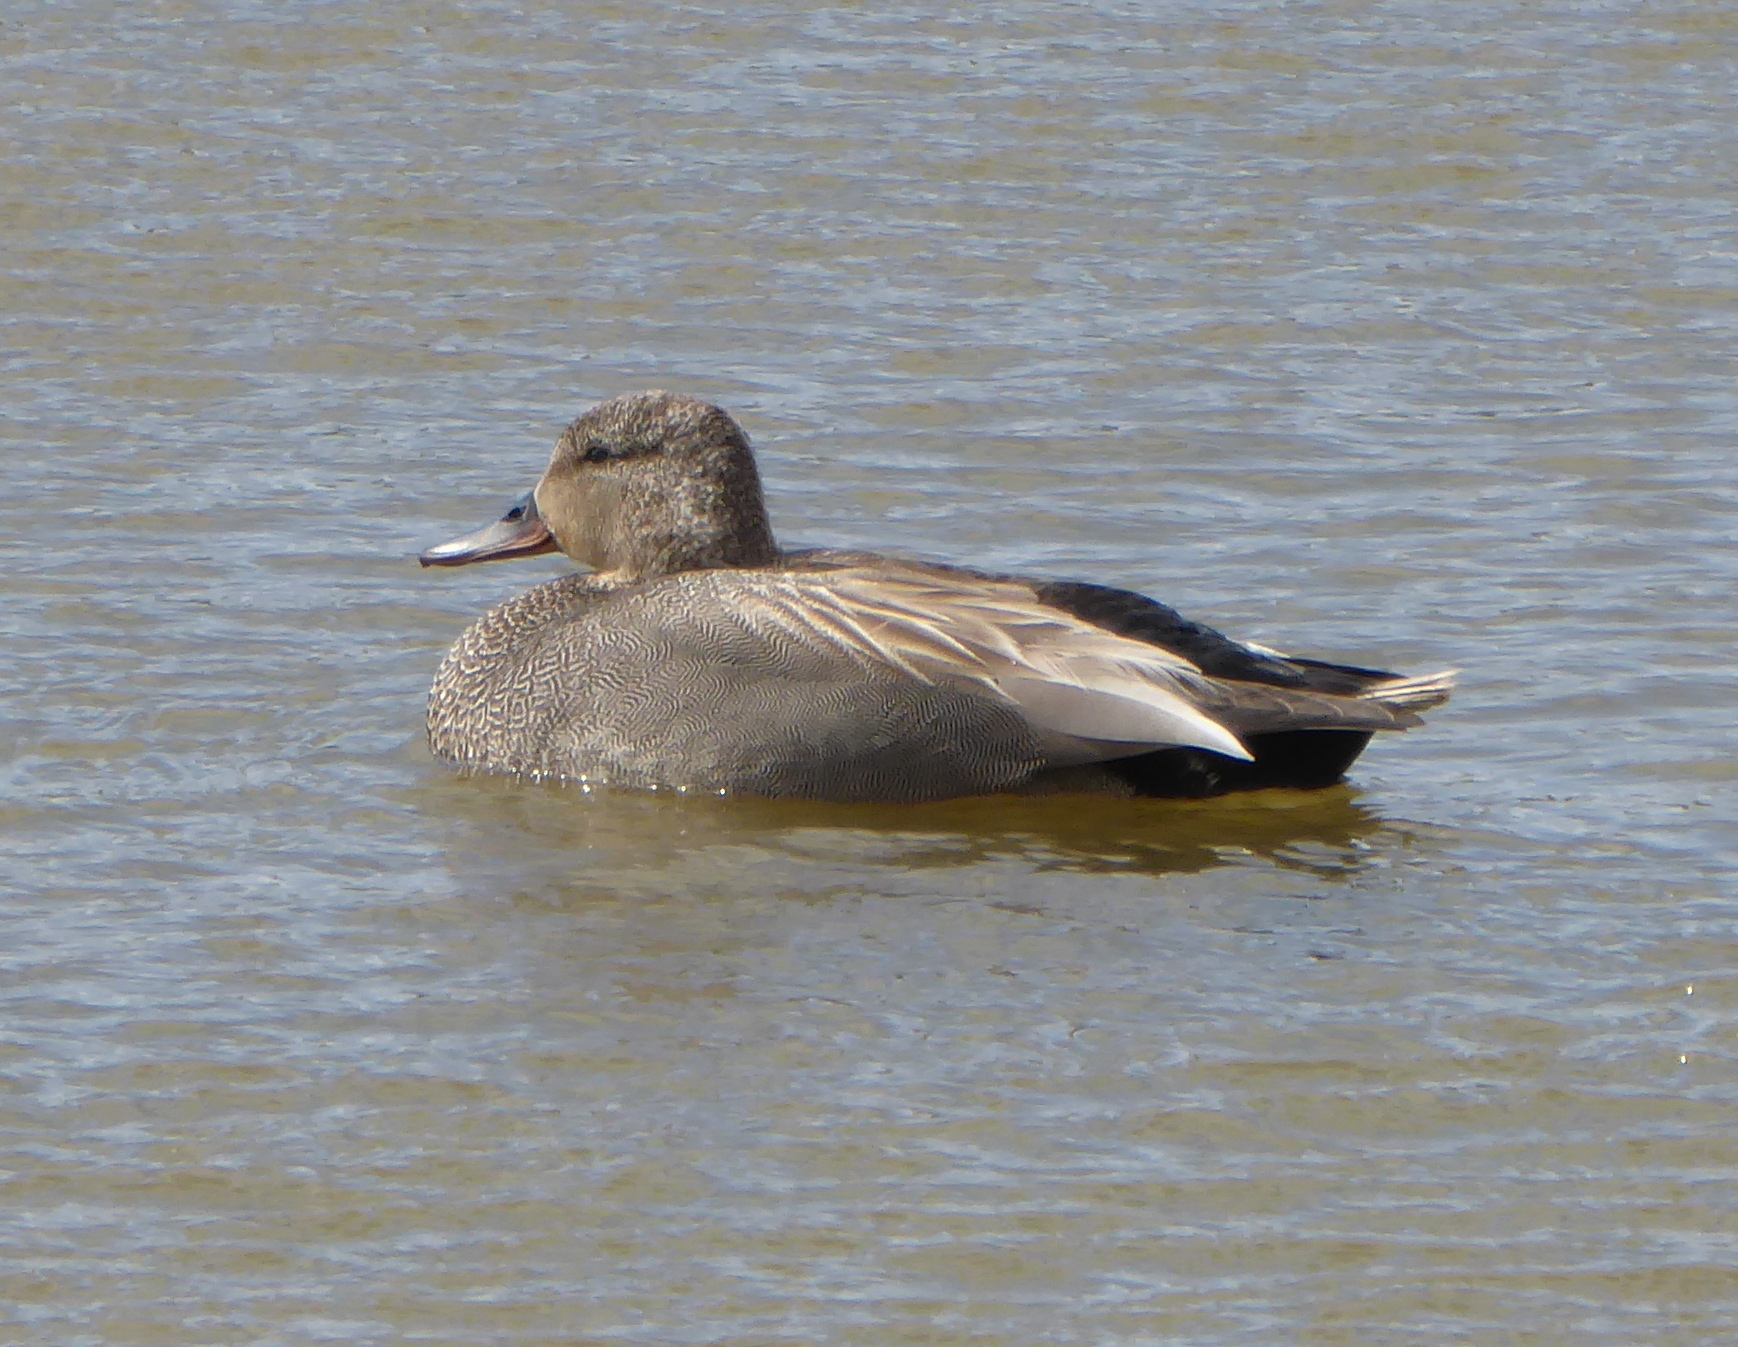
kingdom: Animalia
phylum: Chordata
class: Aves
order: Anseriformes
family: Anatidae
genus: Mareca
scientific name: Mareca strepera
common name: Gadwall
